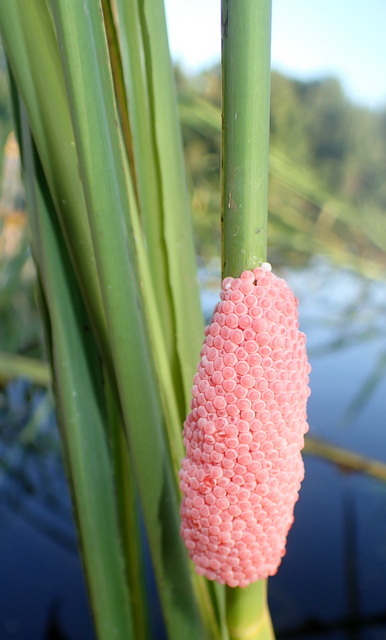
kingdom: Animalia
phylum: Mollusca
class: Gastropoda
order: Architaenioglossa
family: Ampullariidae
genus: Pomacea
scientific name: Pomacea maculata
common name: Giant applesnail
